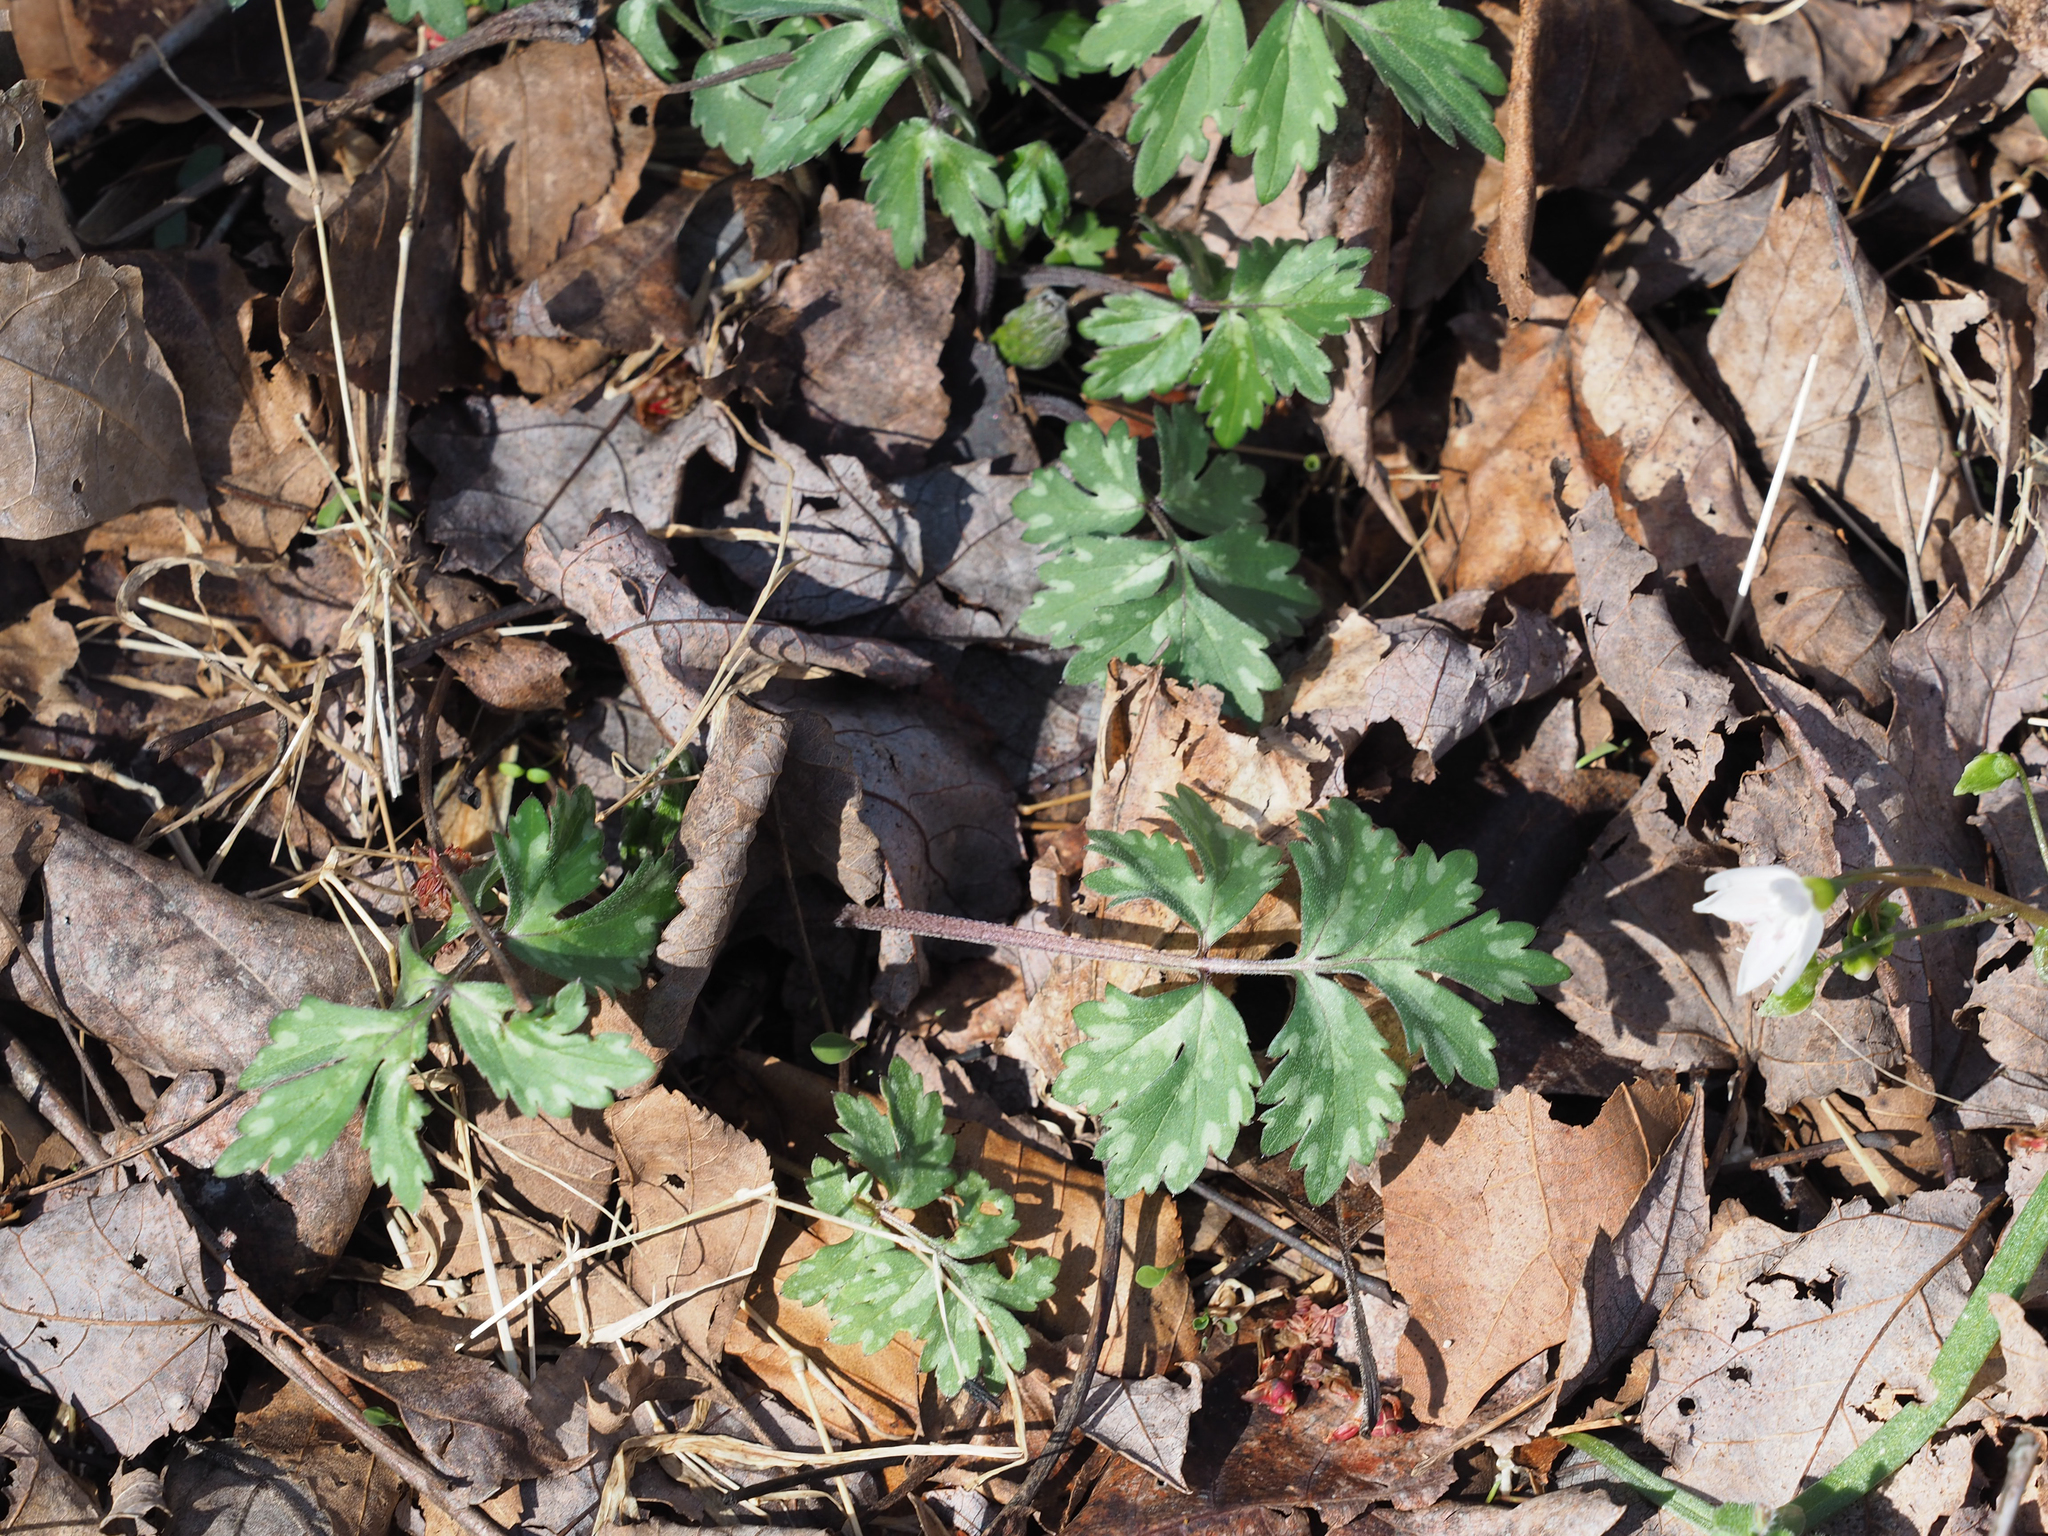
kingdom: Plantae
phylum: Tracheophyta
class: Magnoliopsida
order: Boraginales
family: Hydrophyllaceae
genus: Hydrophyllum
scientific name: Hydrophyllum virginianum
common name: Virginia waterleaf
